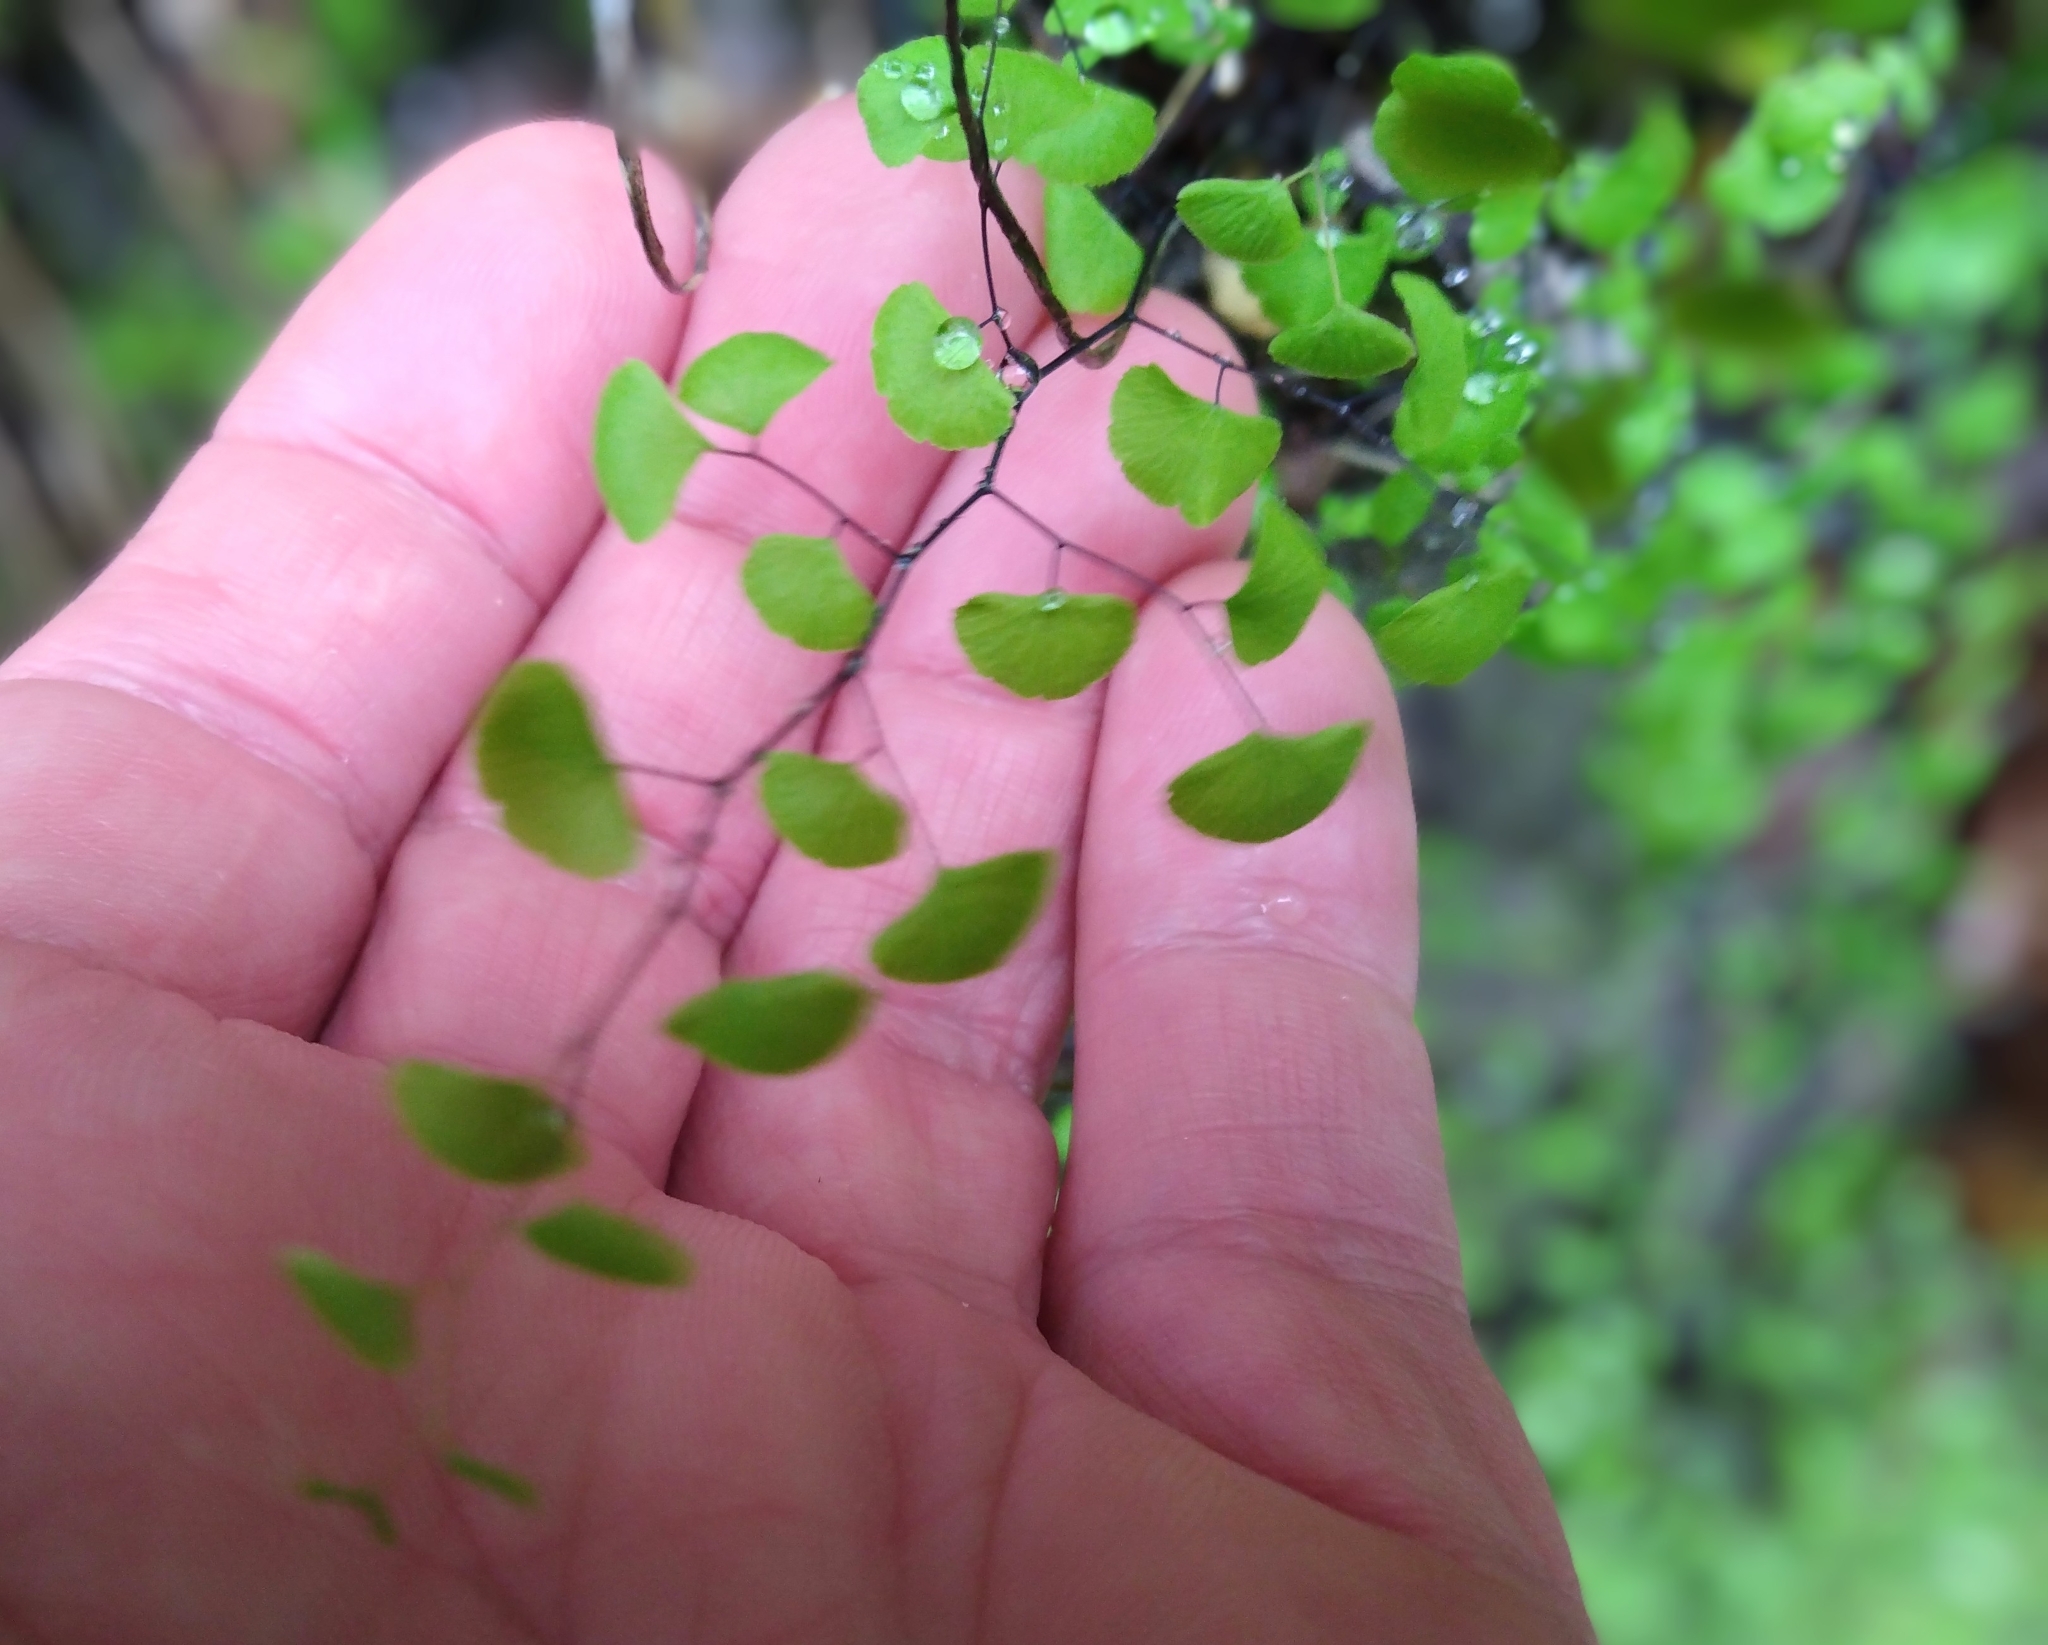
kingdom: Plantae
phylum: Tracheophyta
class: Polypodiopsida
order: Polypodiales
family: Pteridaceae
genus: Adiantum
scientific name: Adiantum jordanii
